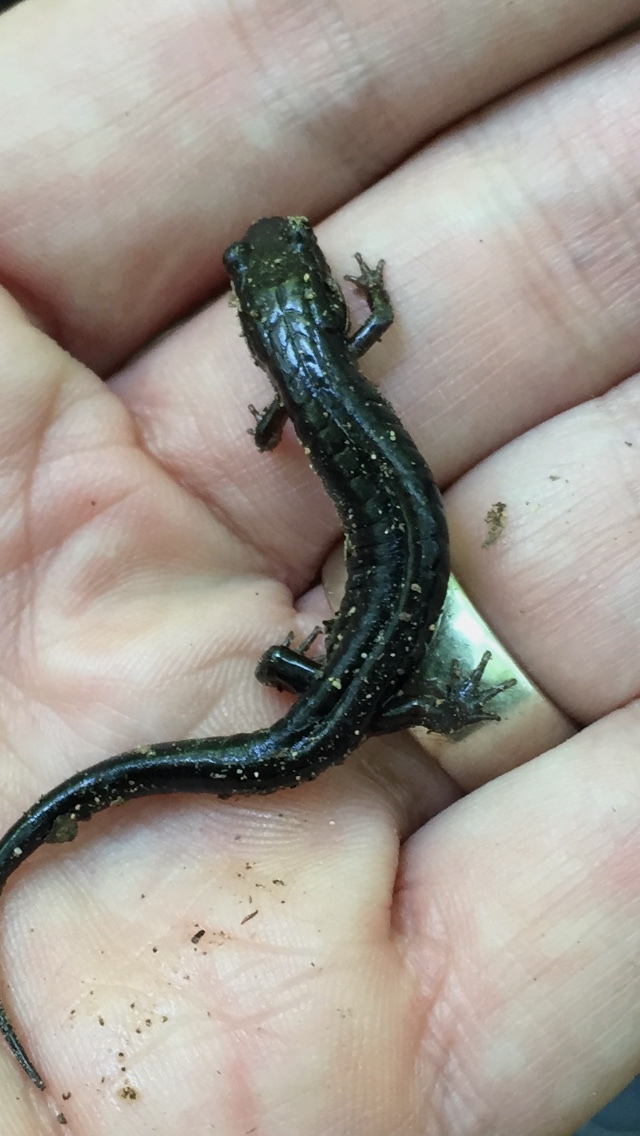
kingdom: Animalia
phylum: Chordata
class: Amphibia
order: Caudata
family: Plethodontidae
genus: Desmognathus
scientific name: Desmognathus ochrophaeus
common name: Allegheny mountain dusky salamander
